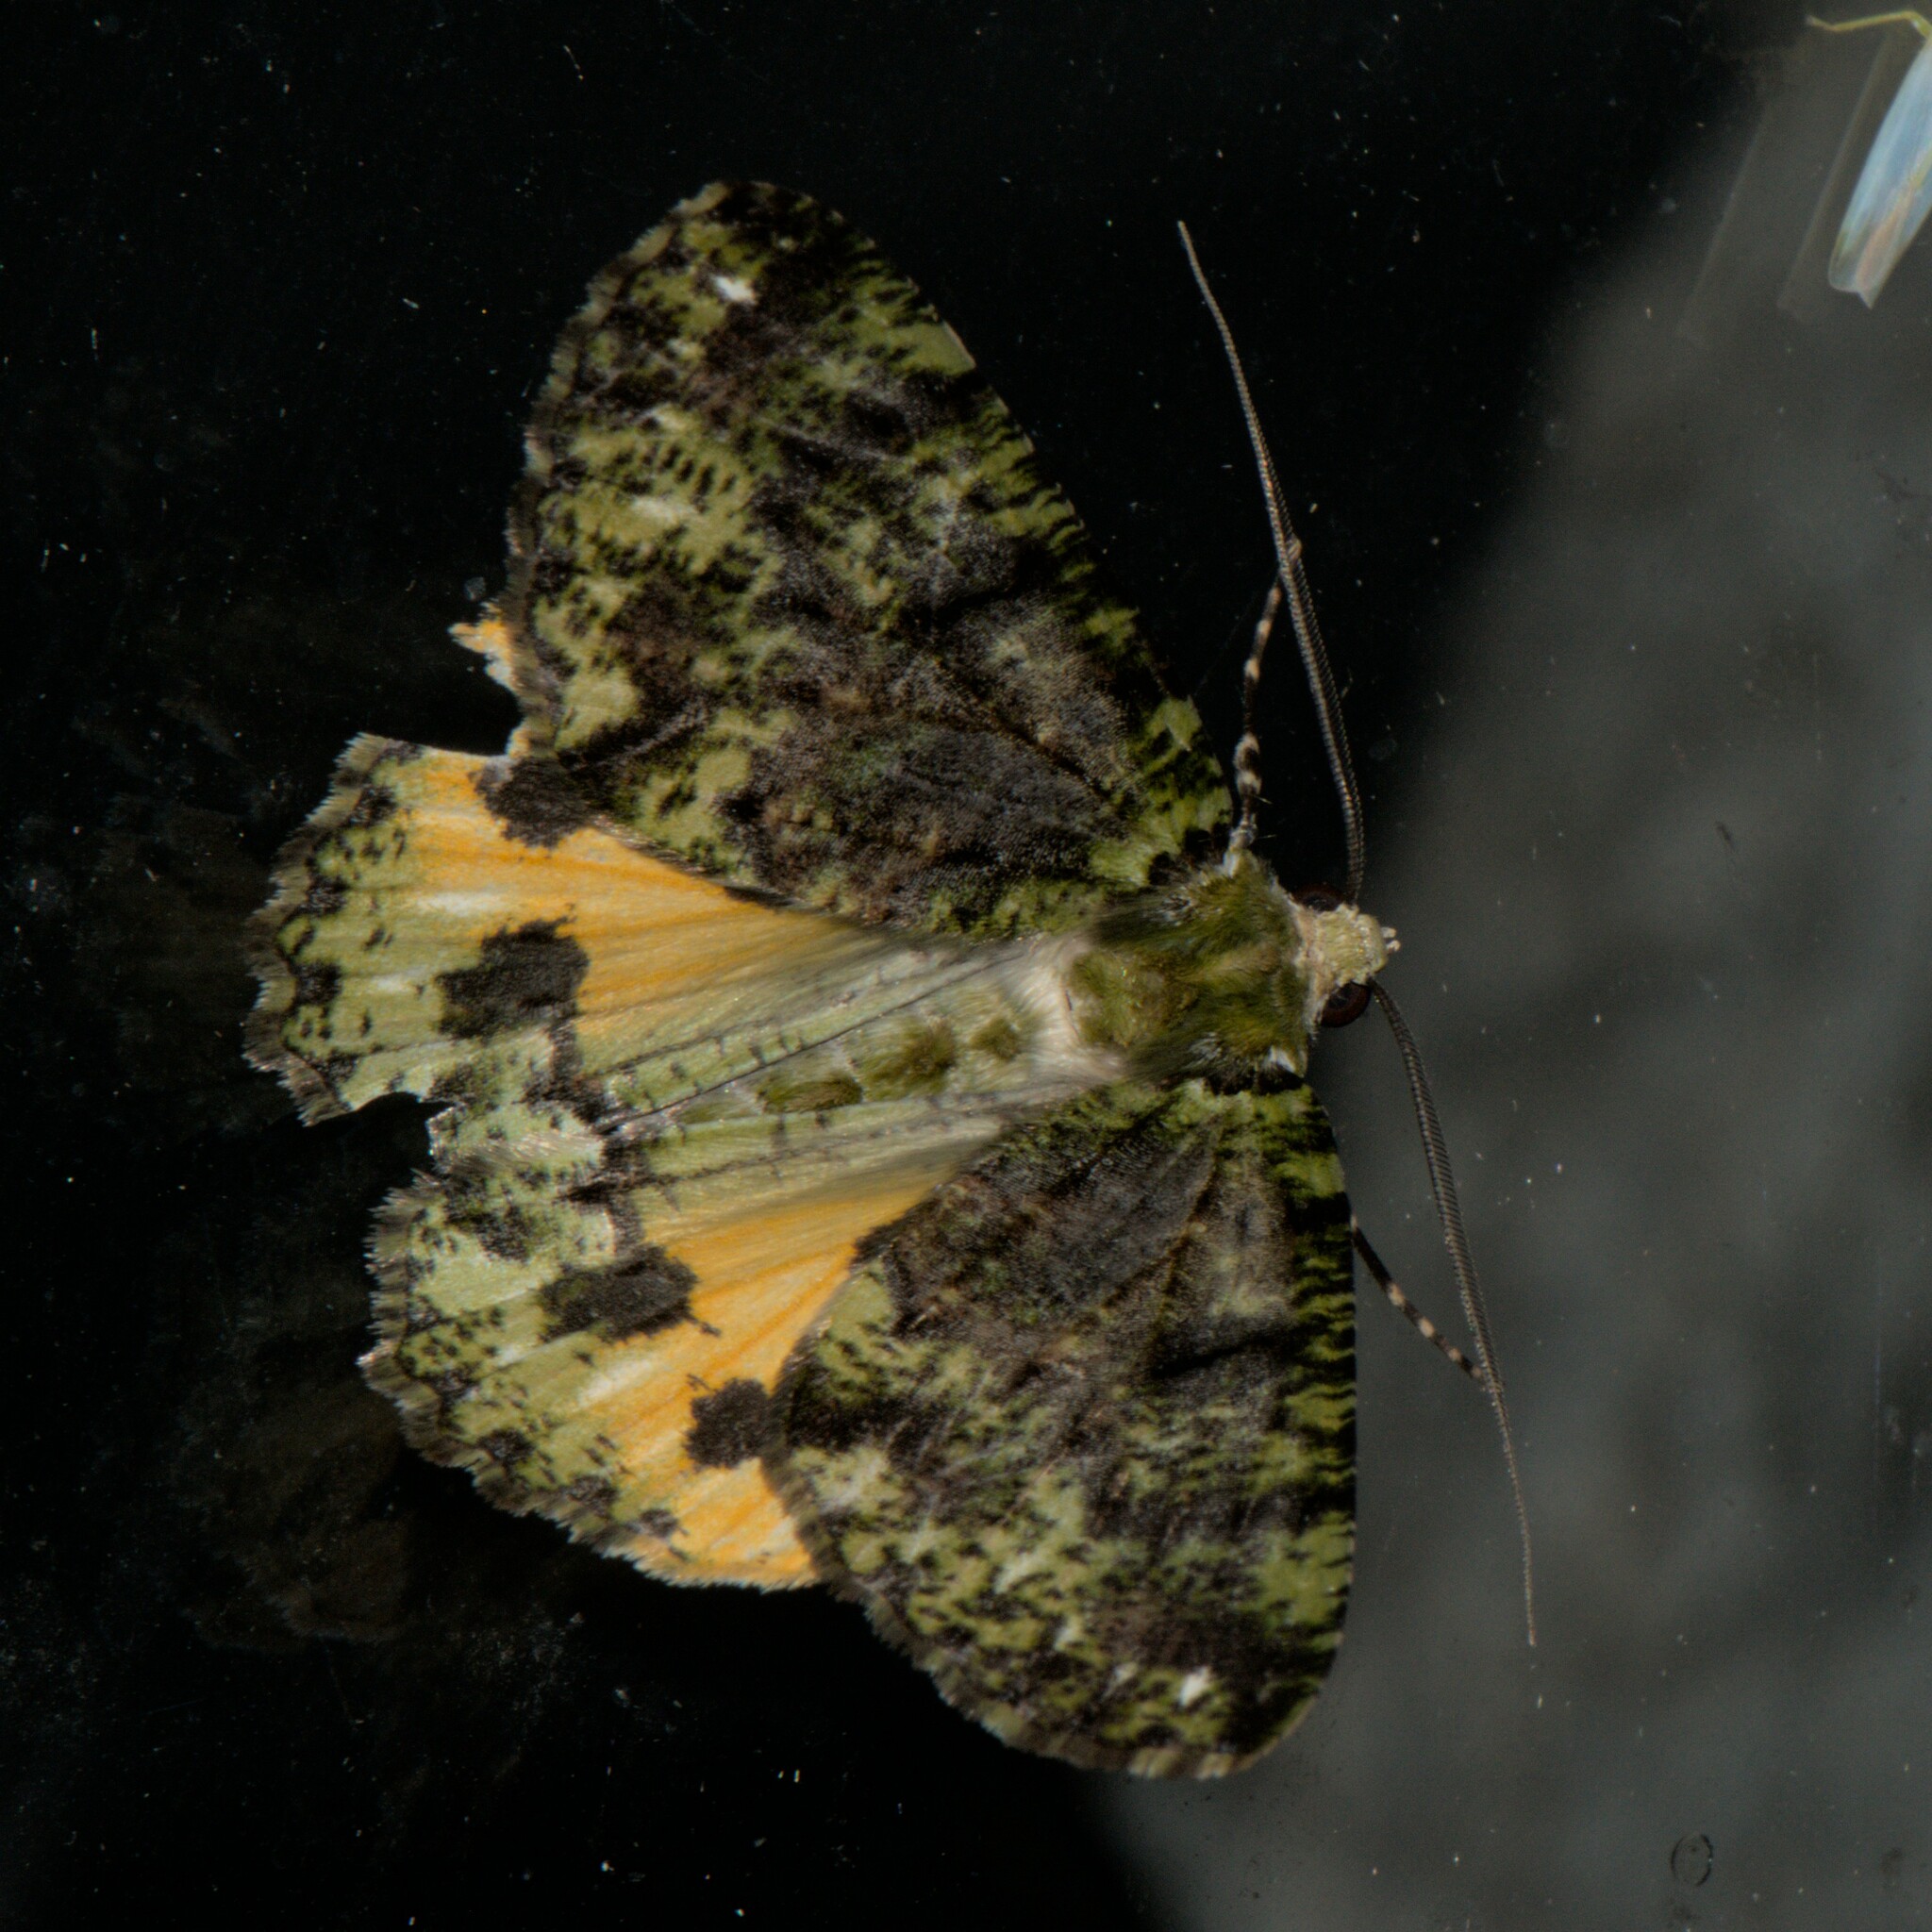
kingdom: Animalia
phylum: Arthropoda
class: Insecta
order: Lepidoptera
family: Geometridae
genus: Dindicodes
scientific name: Dindicodes moelleri
